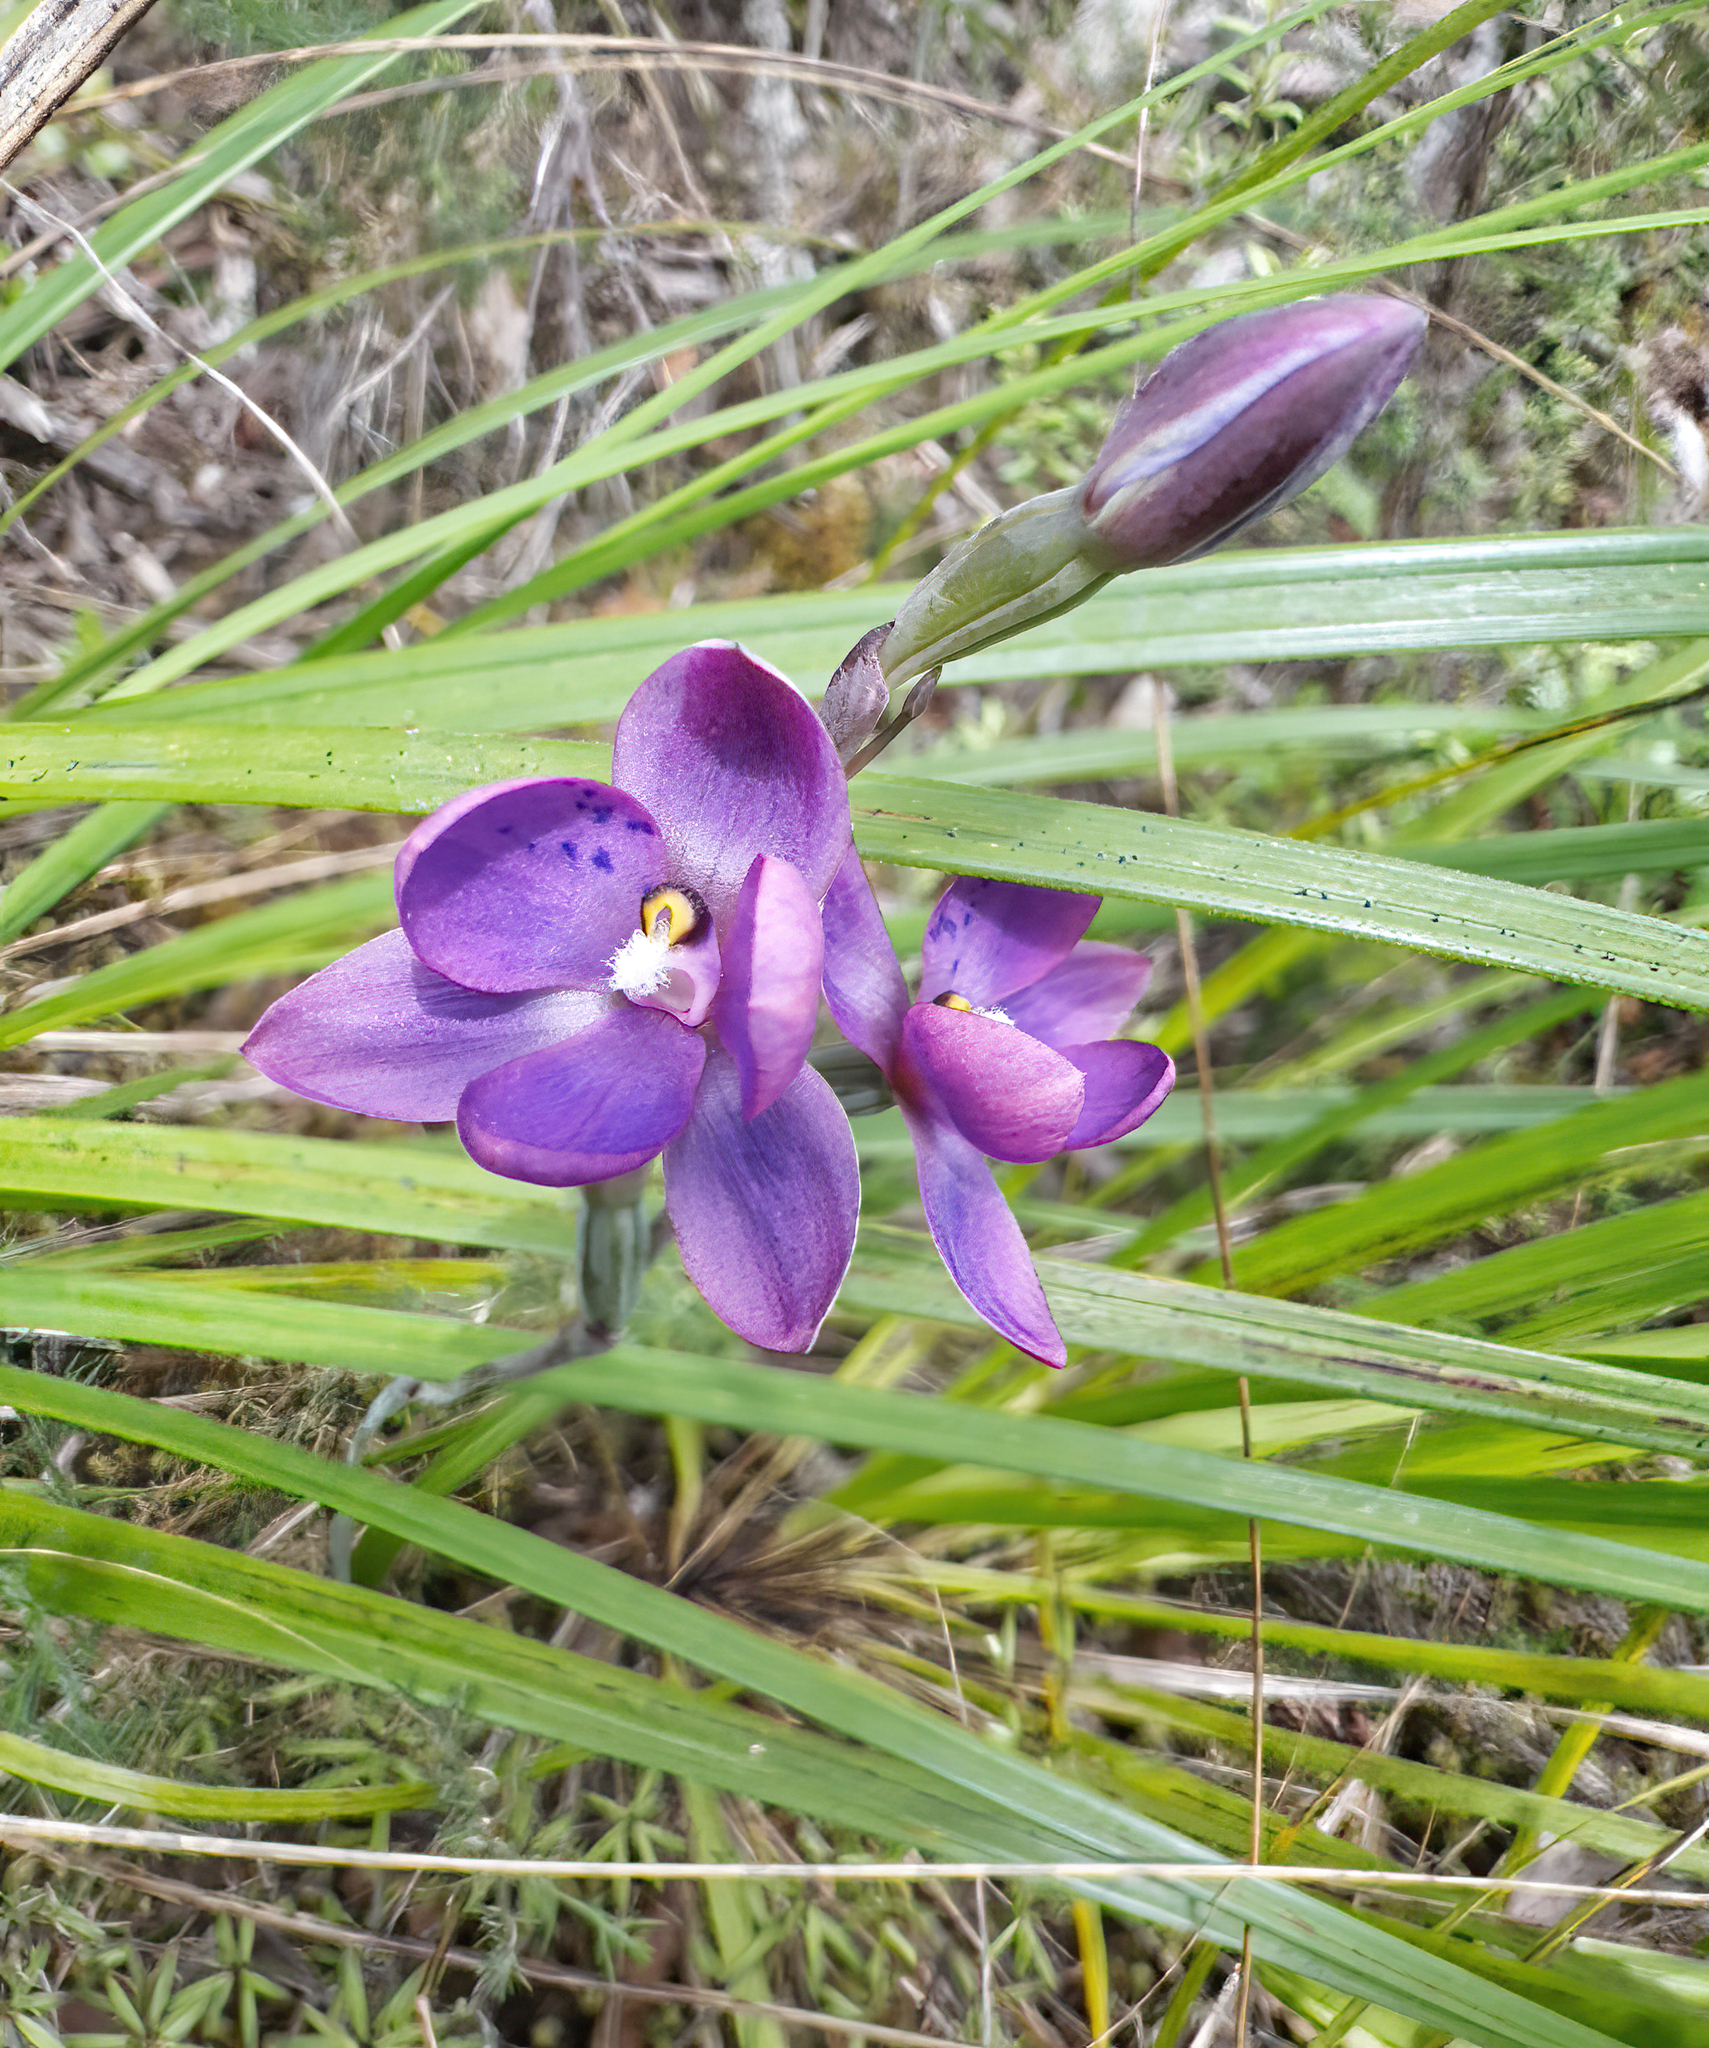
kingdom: Plantae
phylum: Tracheophyta
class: Liliopsida
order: Asparagales
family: Orchidaceae
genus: Thelymitra
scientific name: Thelymitra nervosa
